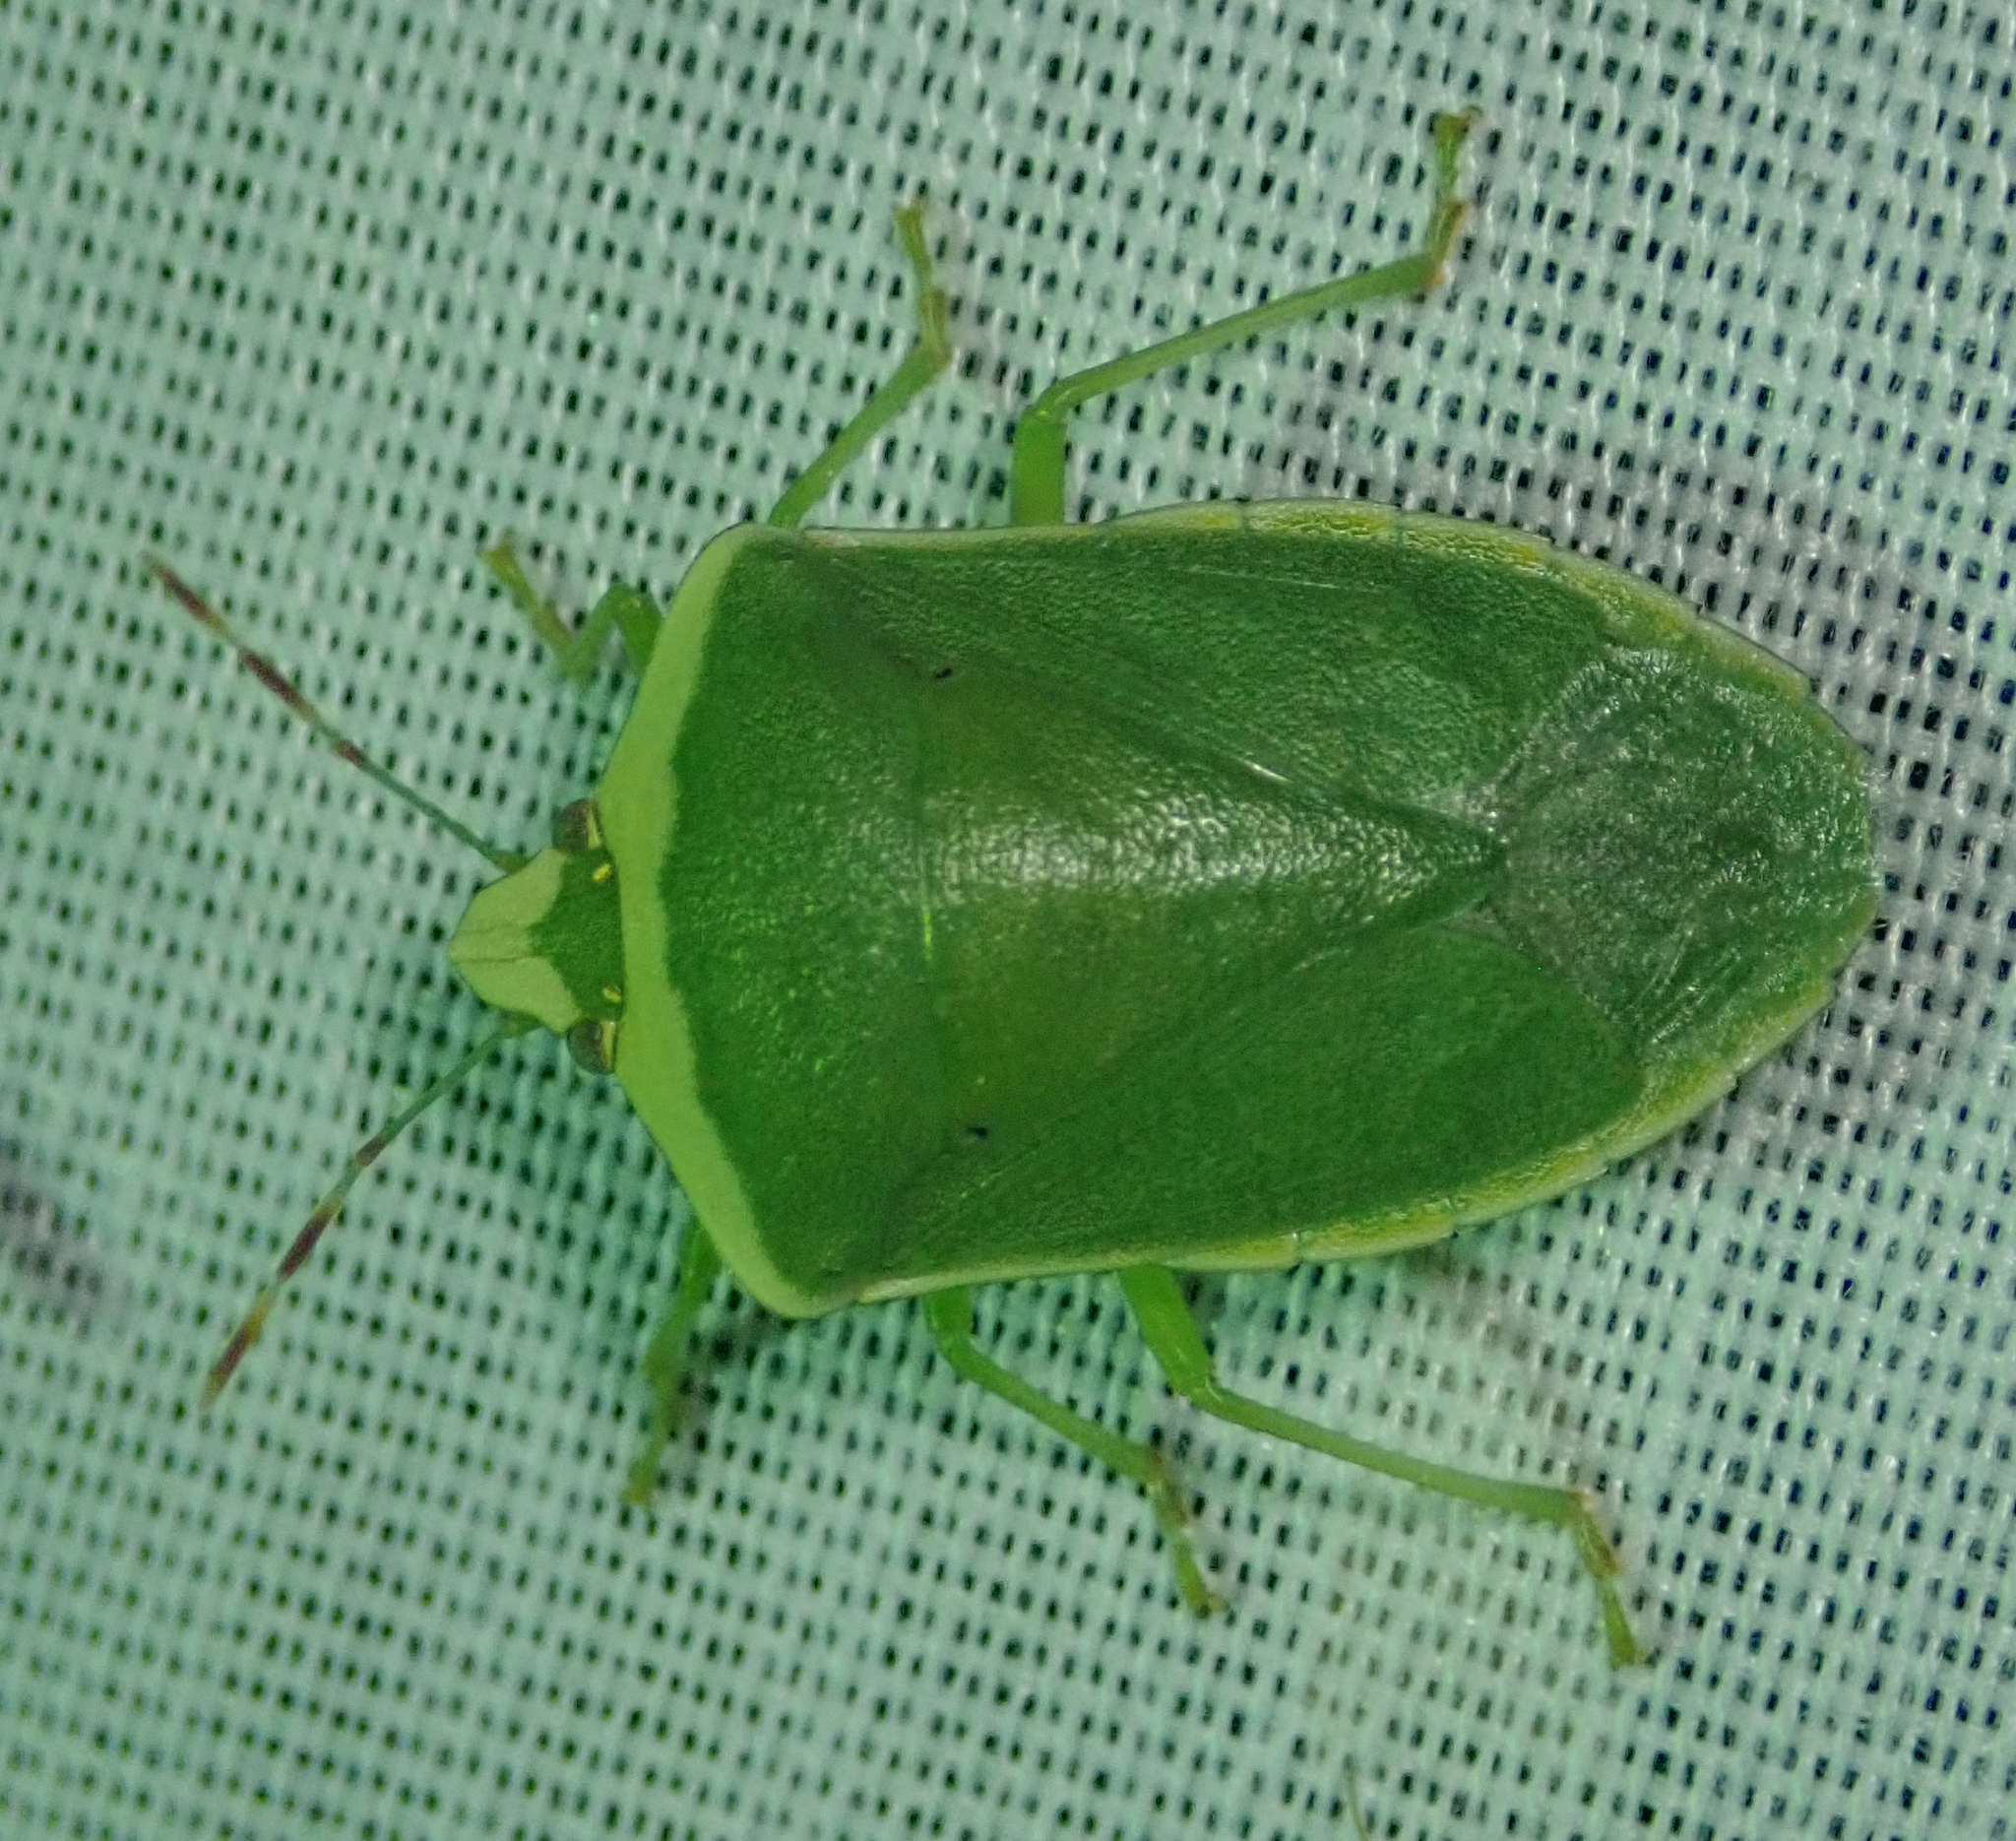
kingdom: Animalia
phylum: Arthropoda
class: Insecta
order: Hemiptera
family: Pentatomidae
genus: Nezara
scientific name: Nezara viridula
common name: Southern green stink bug
